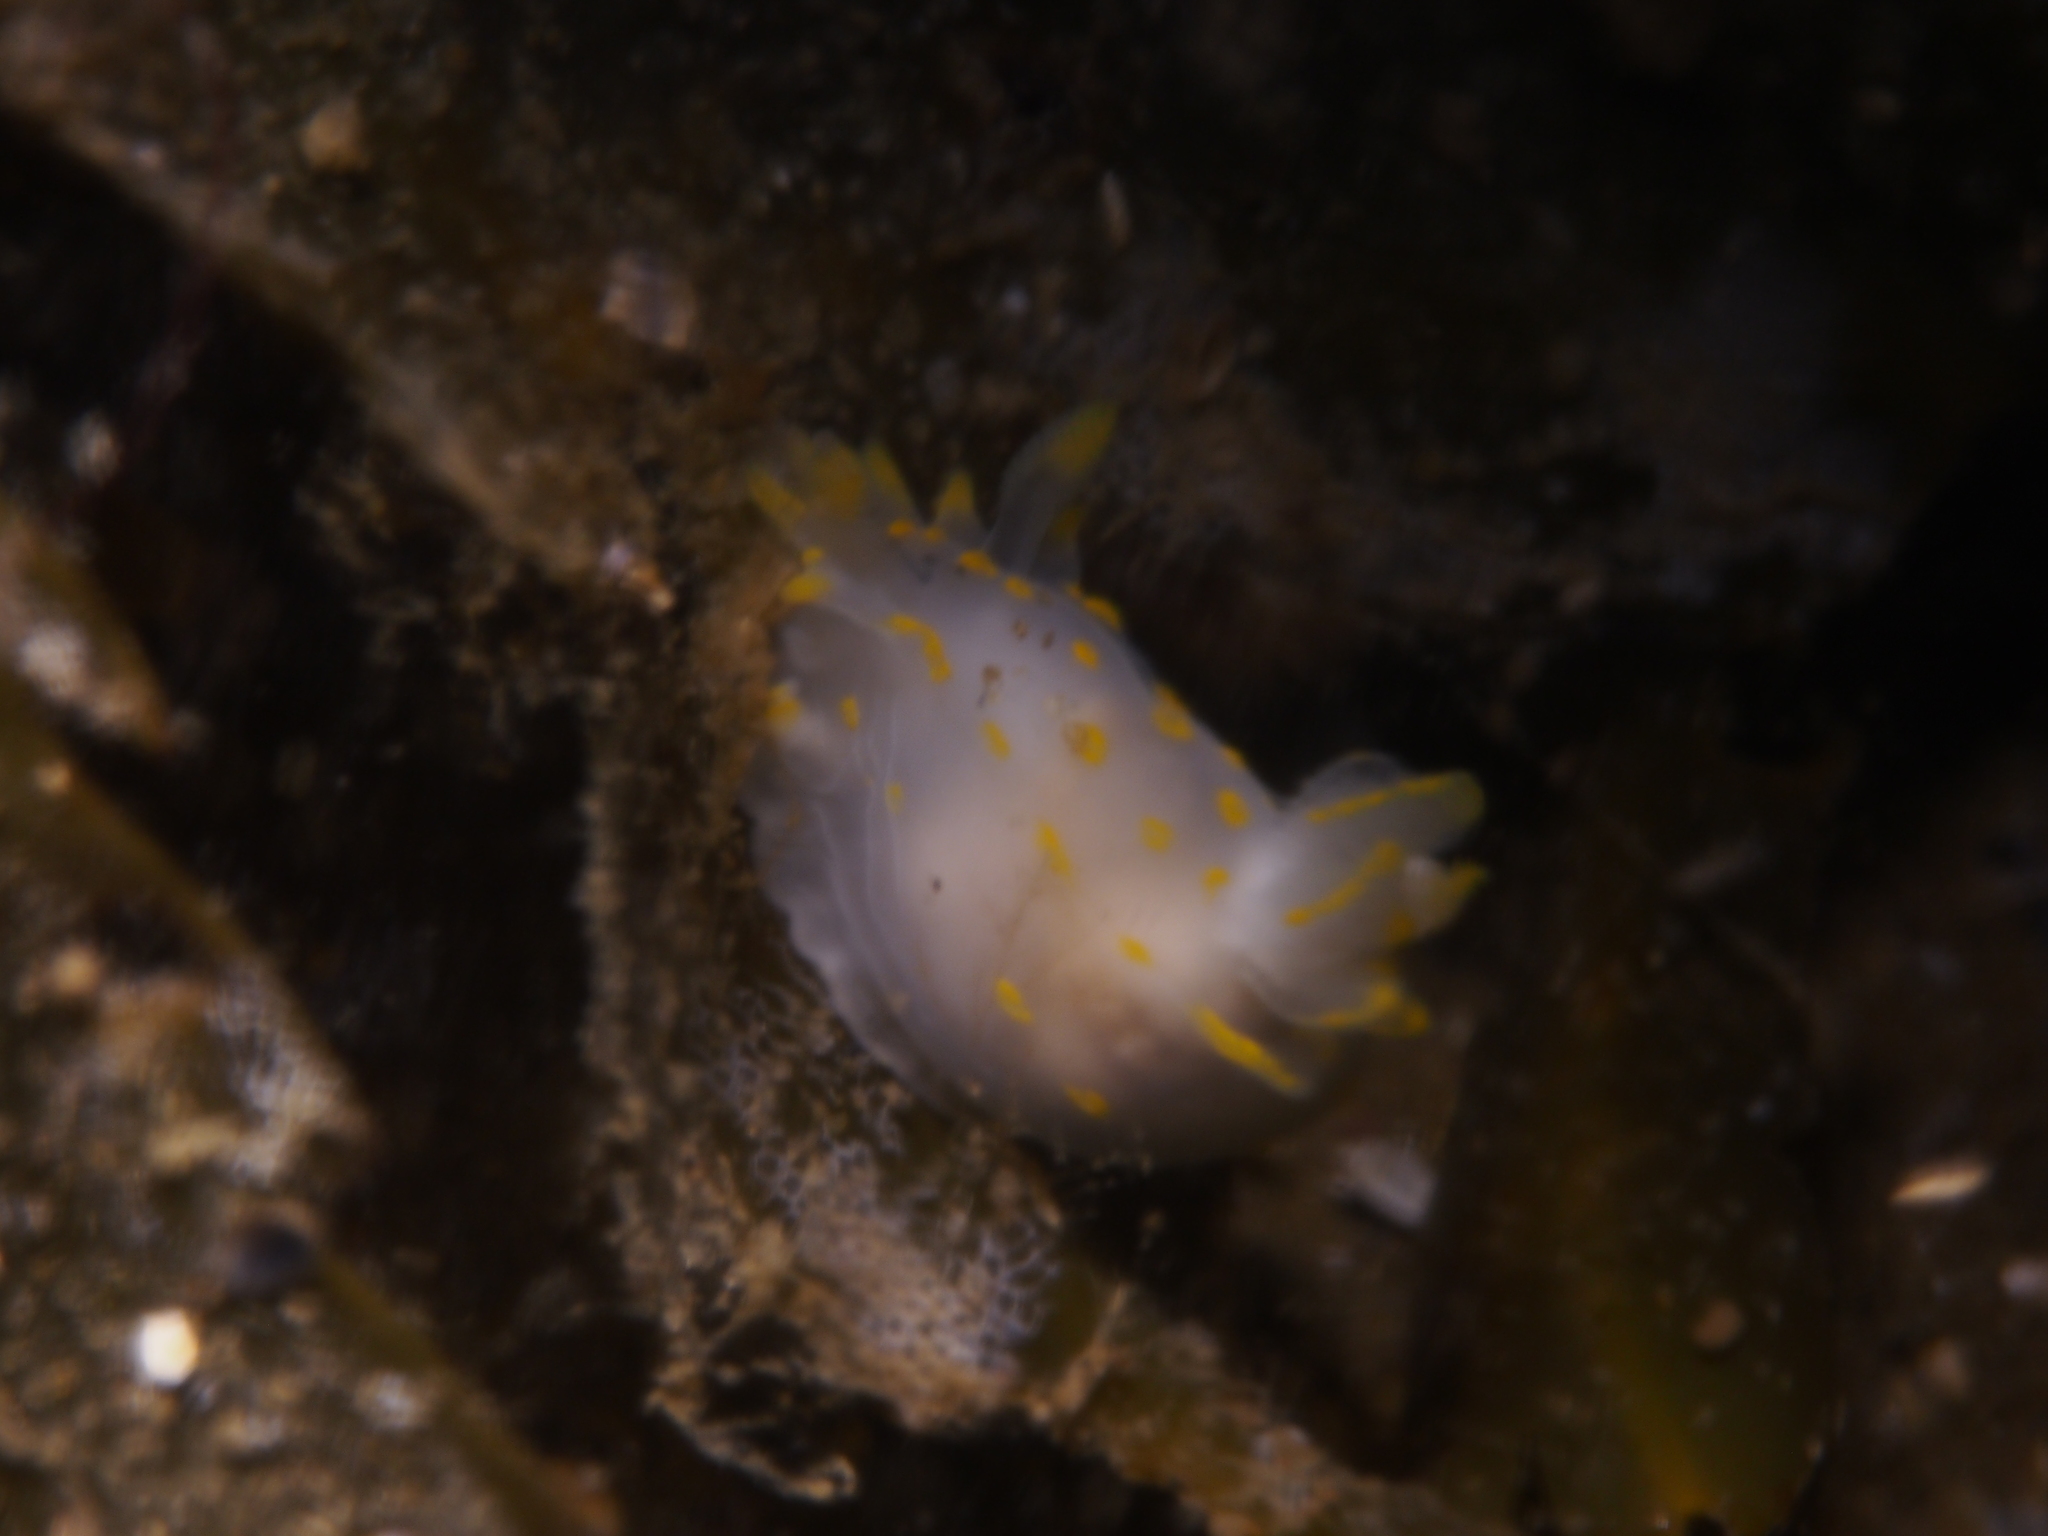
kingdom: Animalia
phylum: Mollusca
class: Gastropoda
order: Nudibranchia
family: Polyceridae
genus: Polycera
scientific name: Polycera quadrilineata
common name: Four-striped polycera
